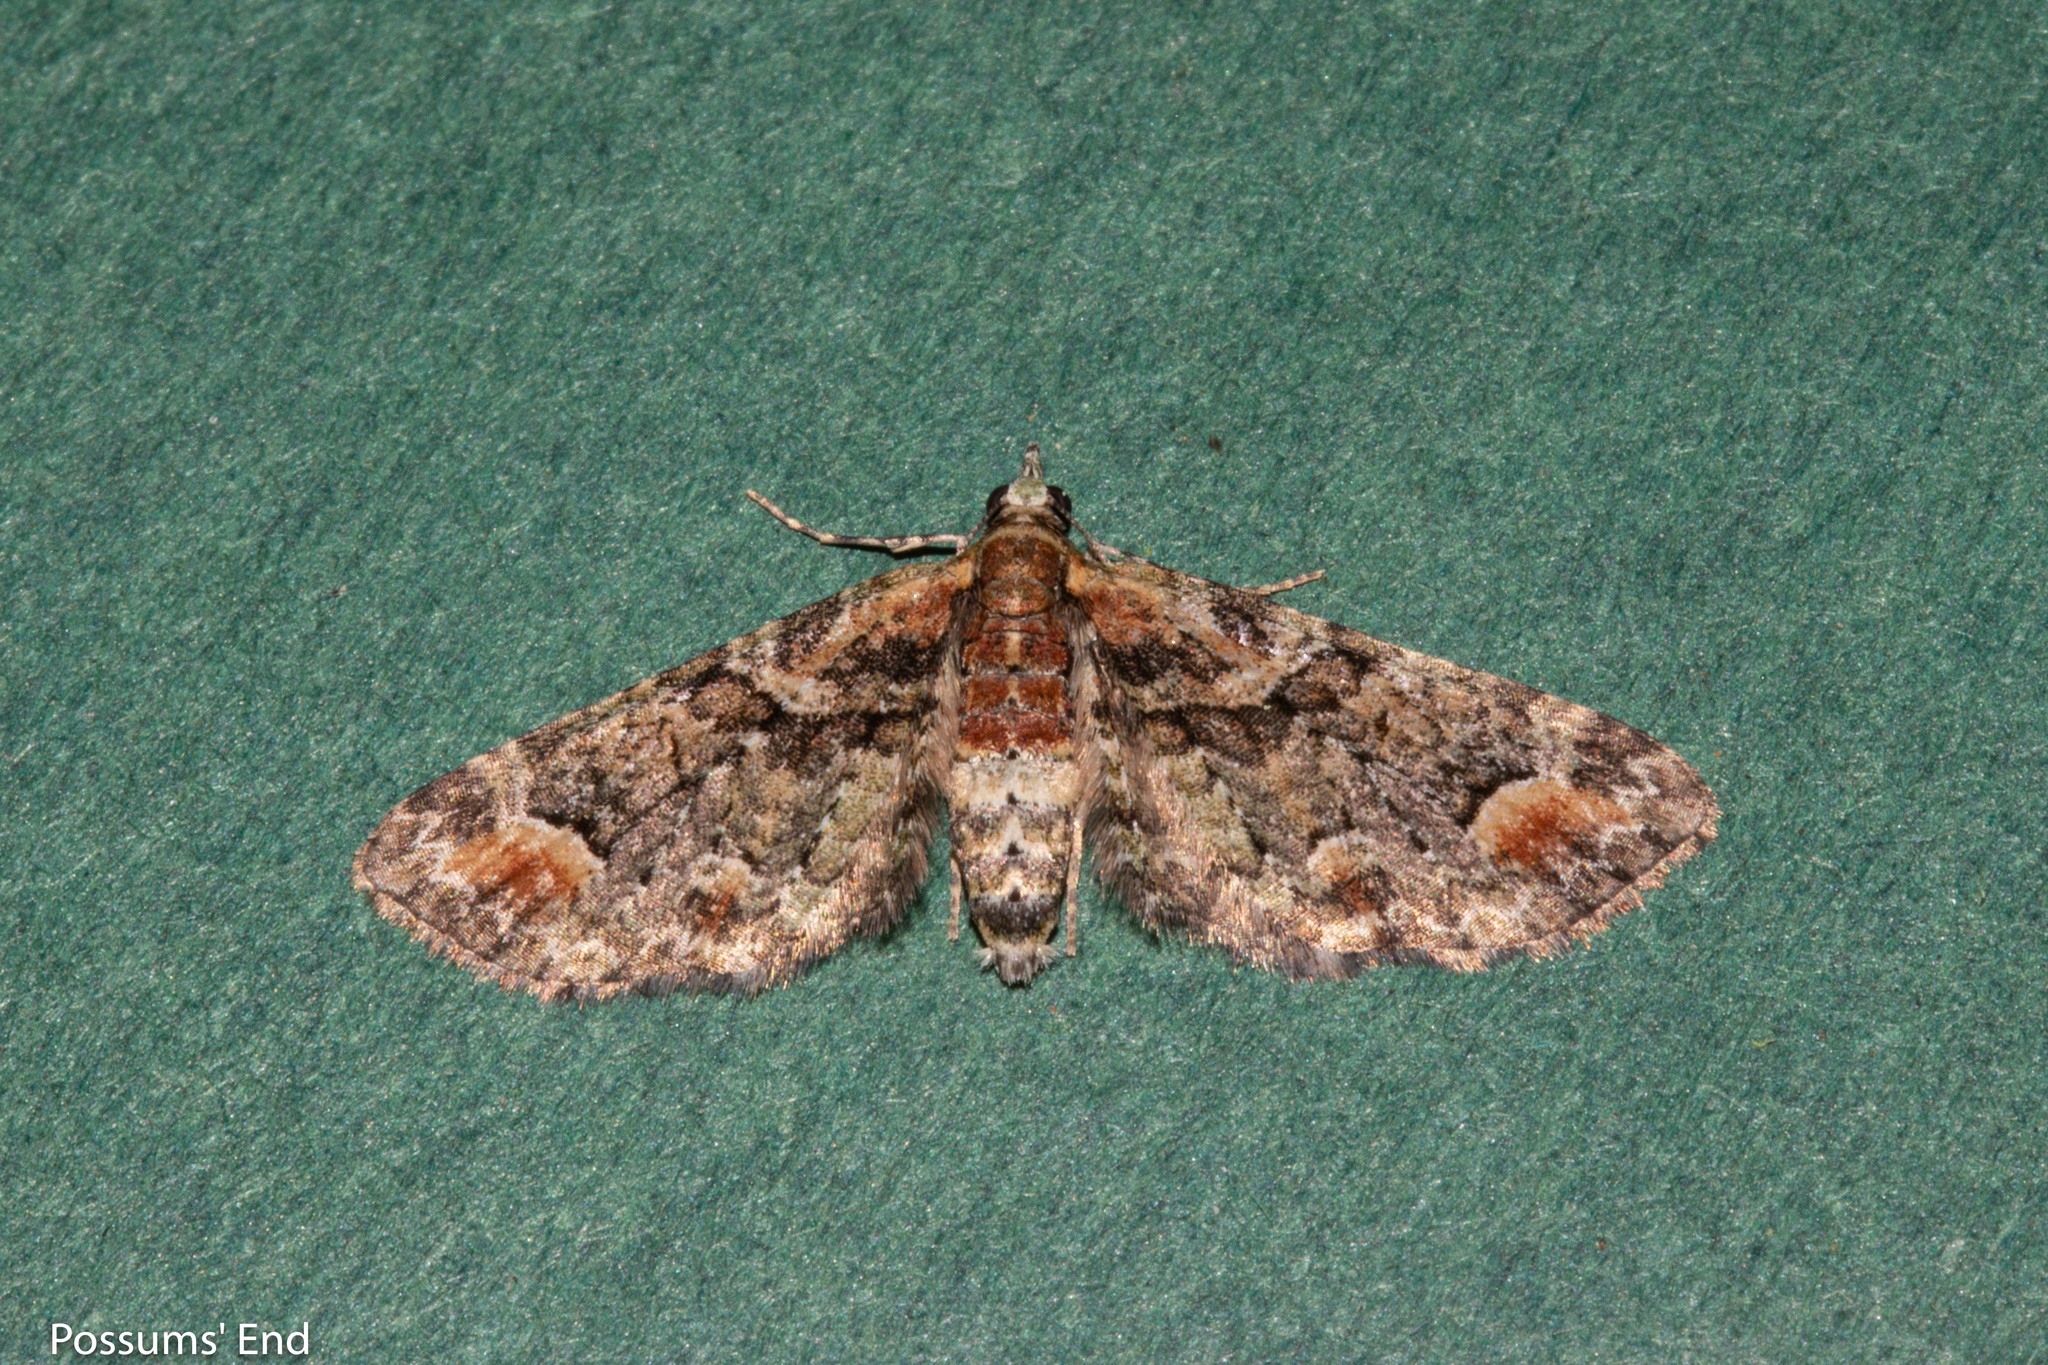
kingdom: Animalia
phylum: Arthropoda
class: Insecta
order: Lepidoptera
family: Geometridae
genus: Idaea
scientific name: Idaea mutanda
